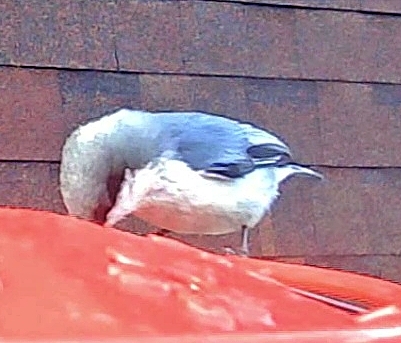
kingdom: Animalia
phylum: Chordata
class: Aves
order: Passeriformes
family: Sittidae
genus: Sitta
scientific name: Sitta pygmaea
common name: Pygmy nuthatch
